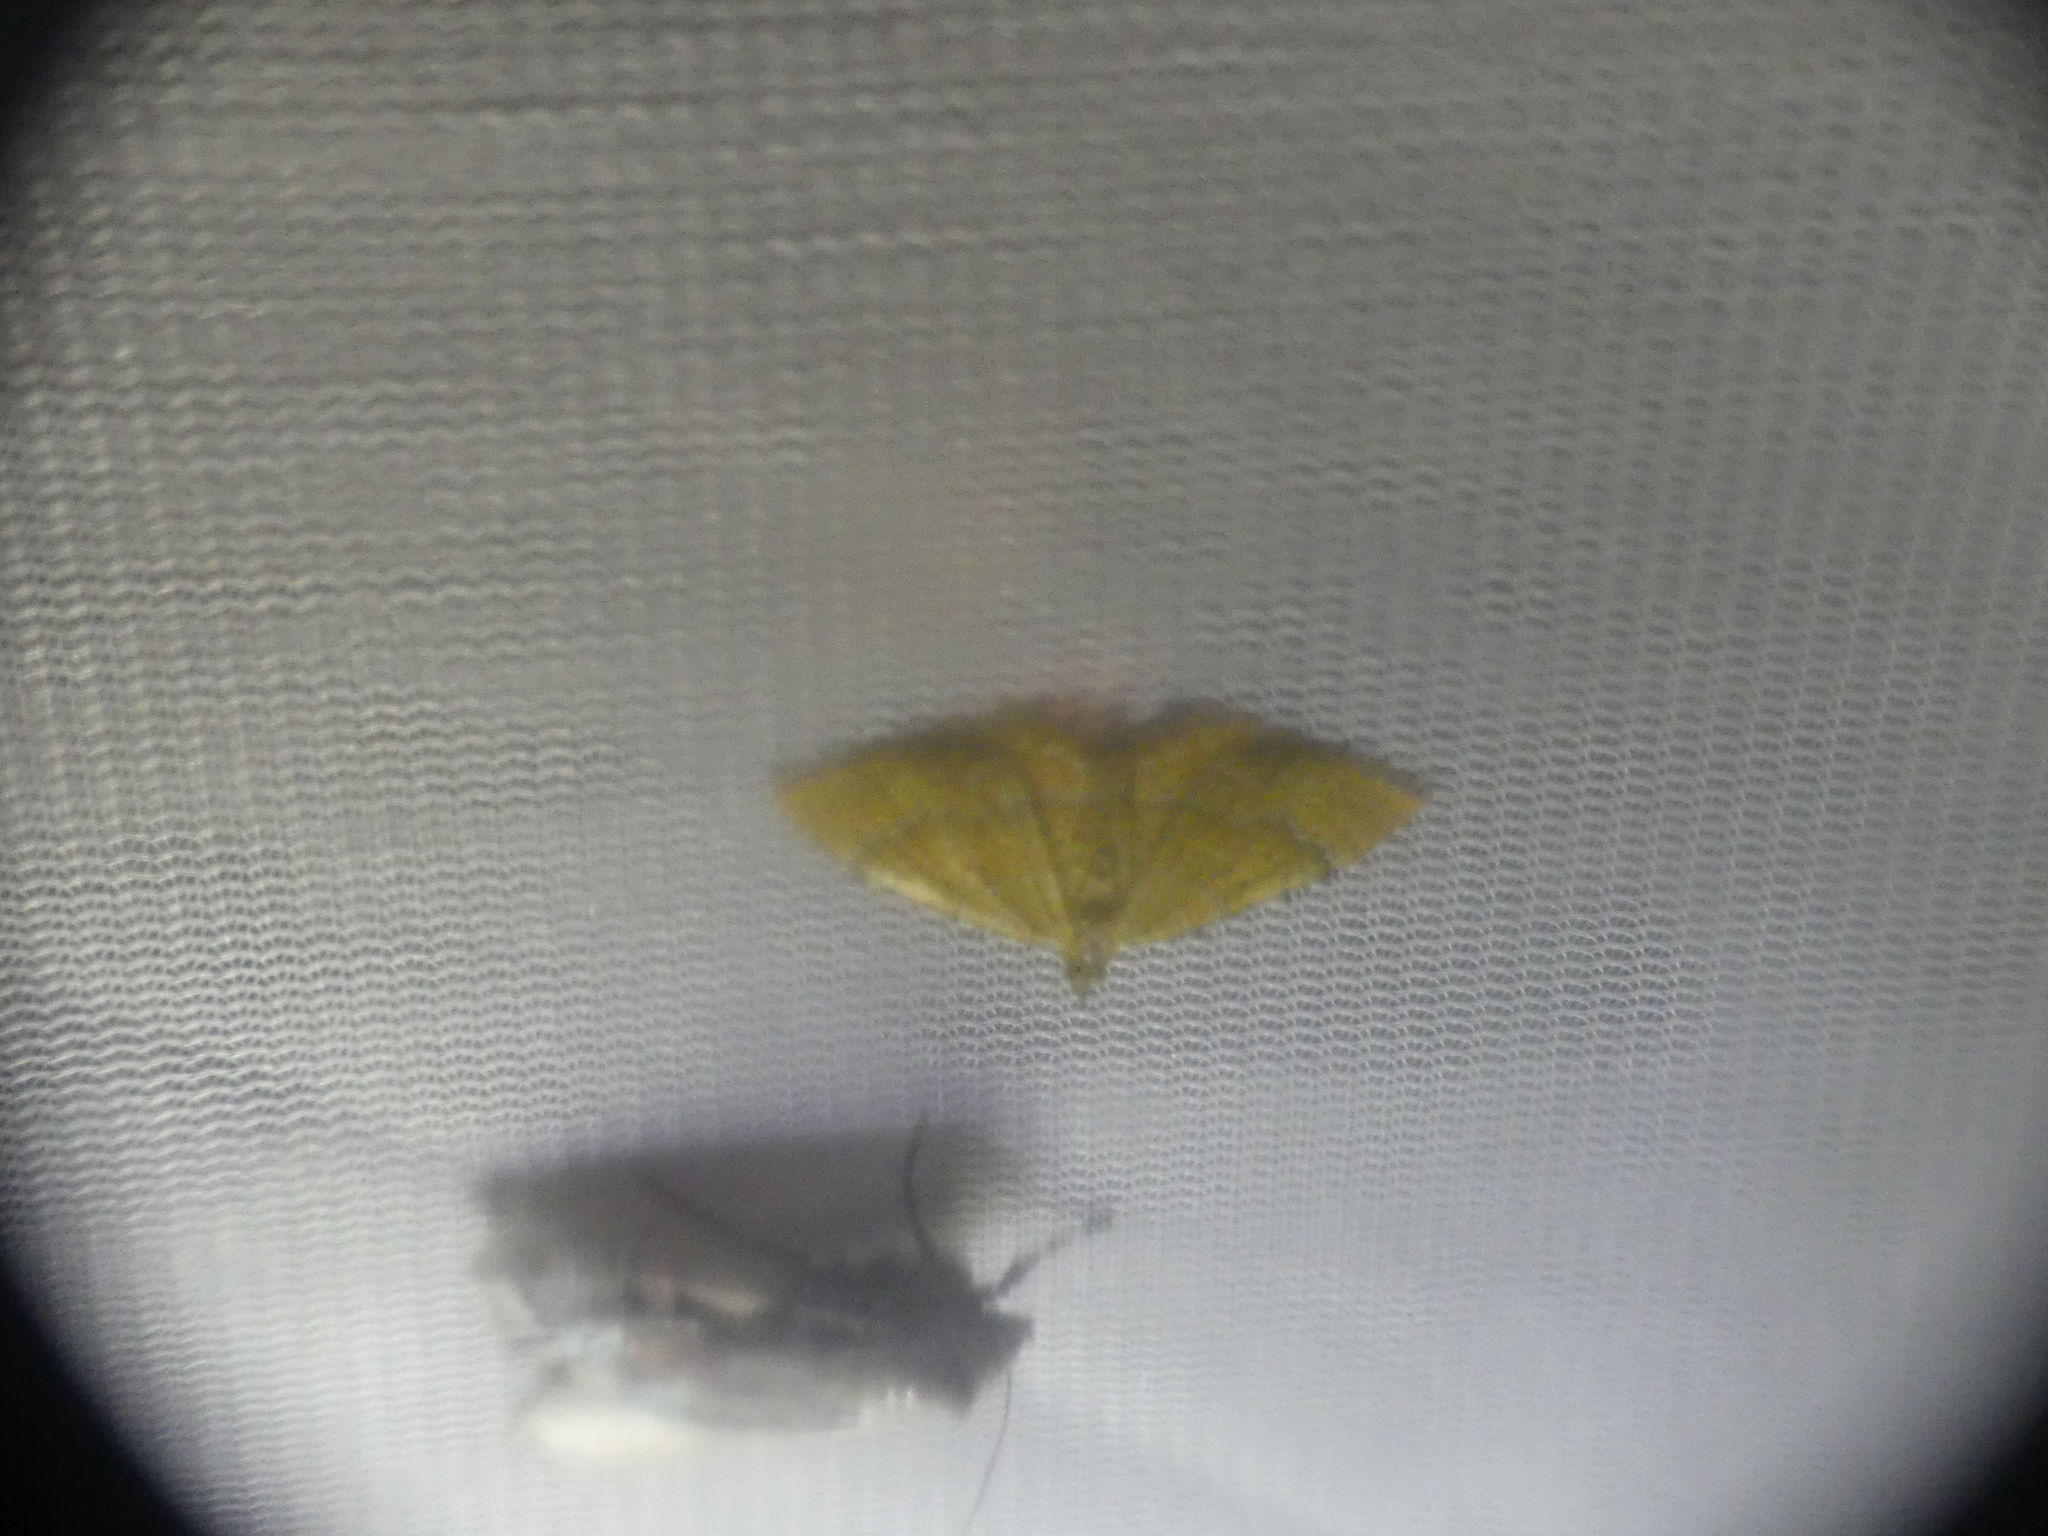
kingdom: Animalia
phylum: Arthropoda
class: Insecta
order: Lepidoptera
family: Geometridae
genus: Camptogramma
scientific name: Camptogramma bilineata
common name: Yellow shell
